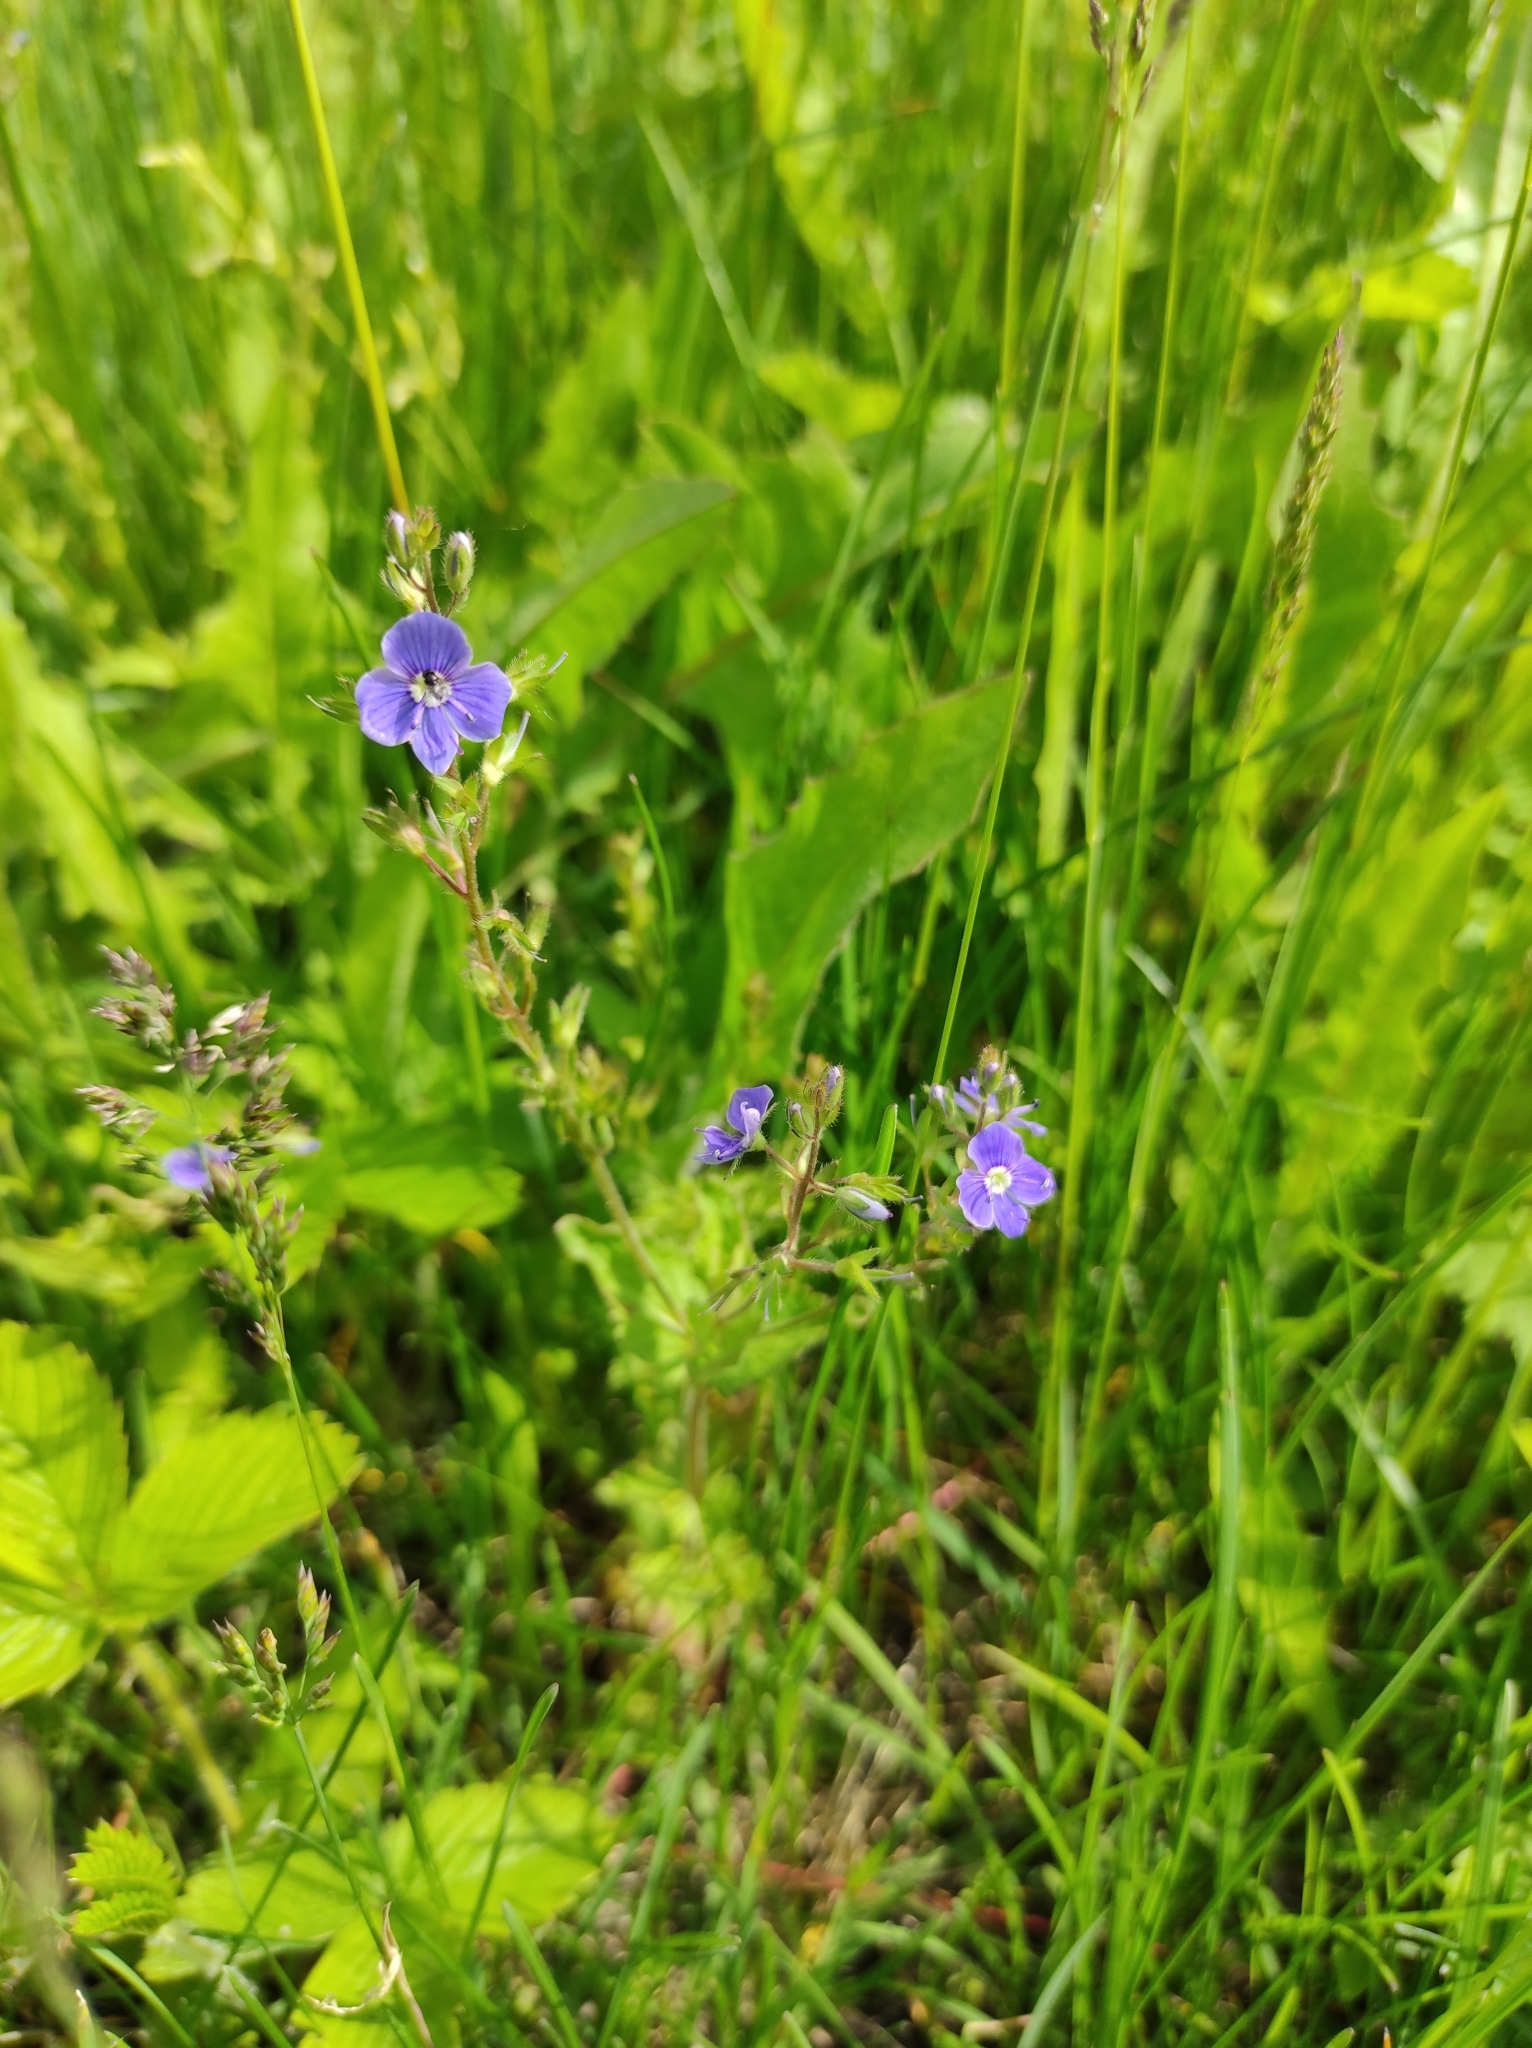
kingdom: Plantae
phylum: Tracheophyta
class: Magnoliopsida
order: Lamiales
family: Plantaginaceae
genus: Veronica
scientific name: Veronica chamaedrys
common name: Germander speedwell
